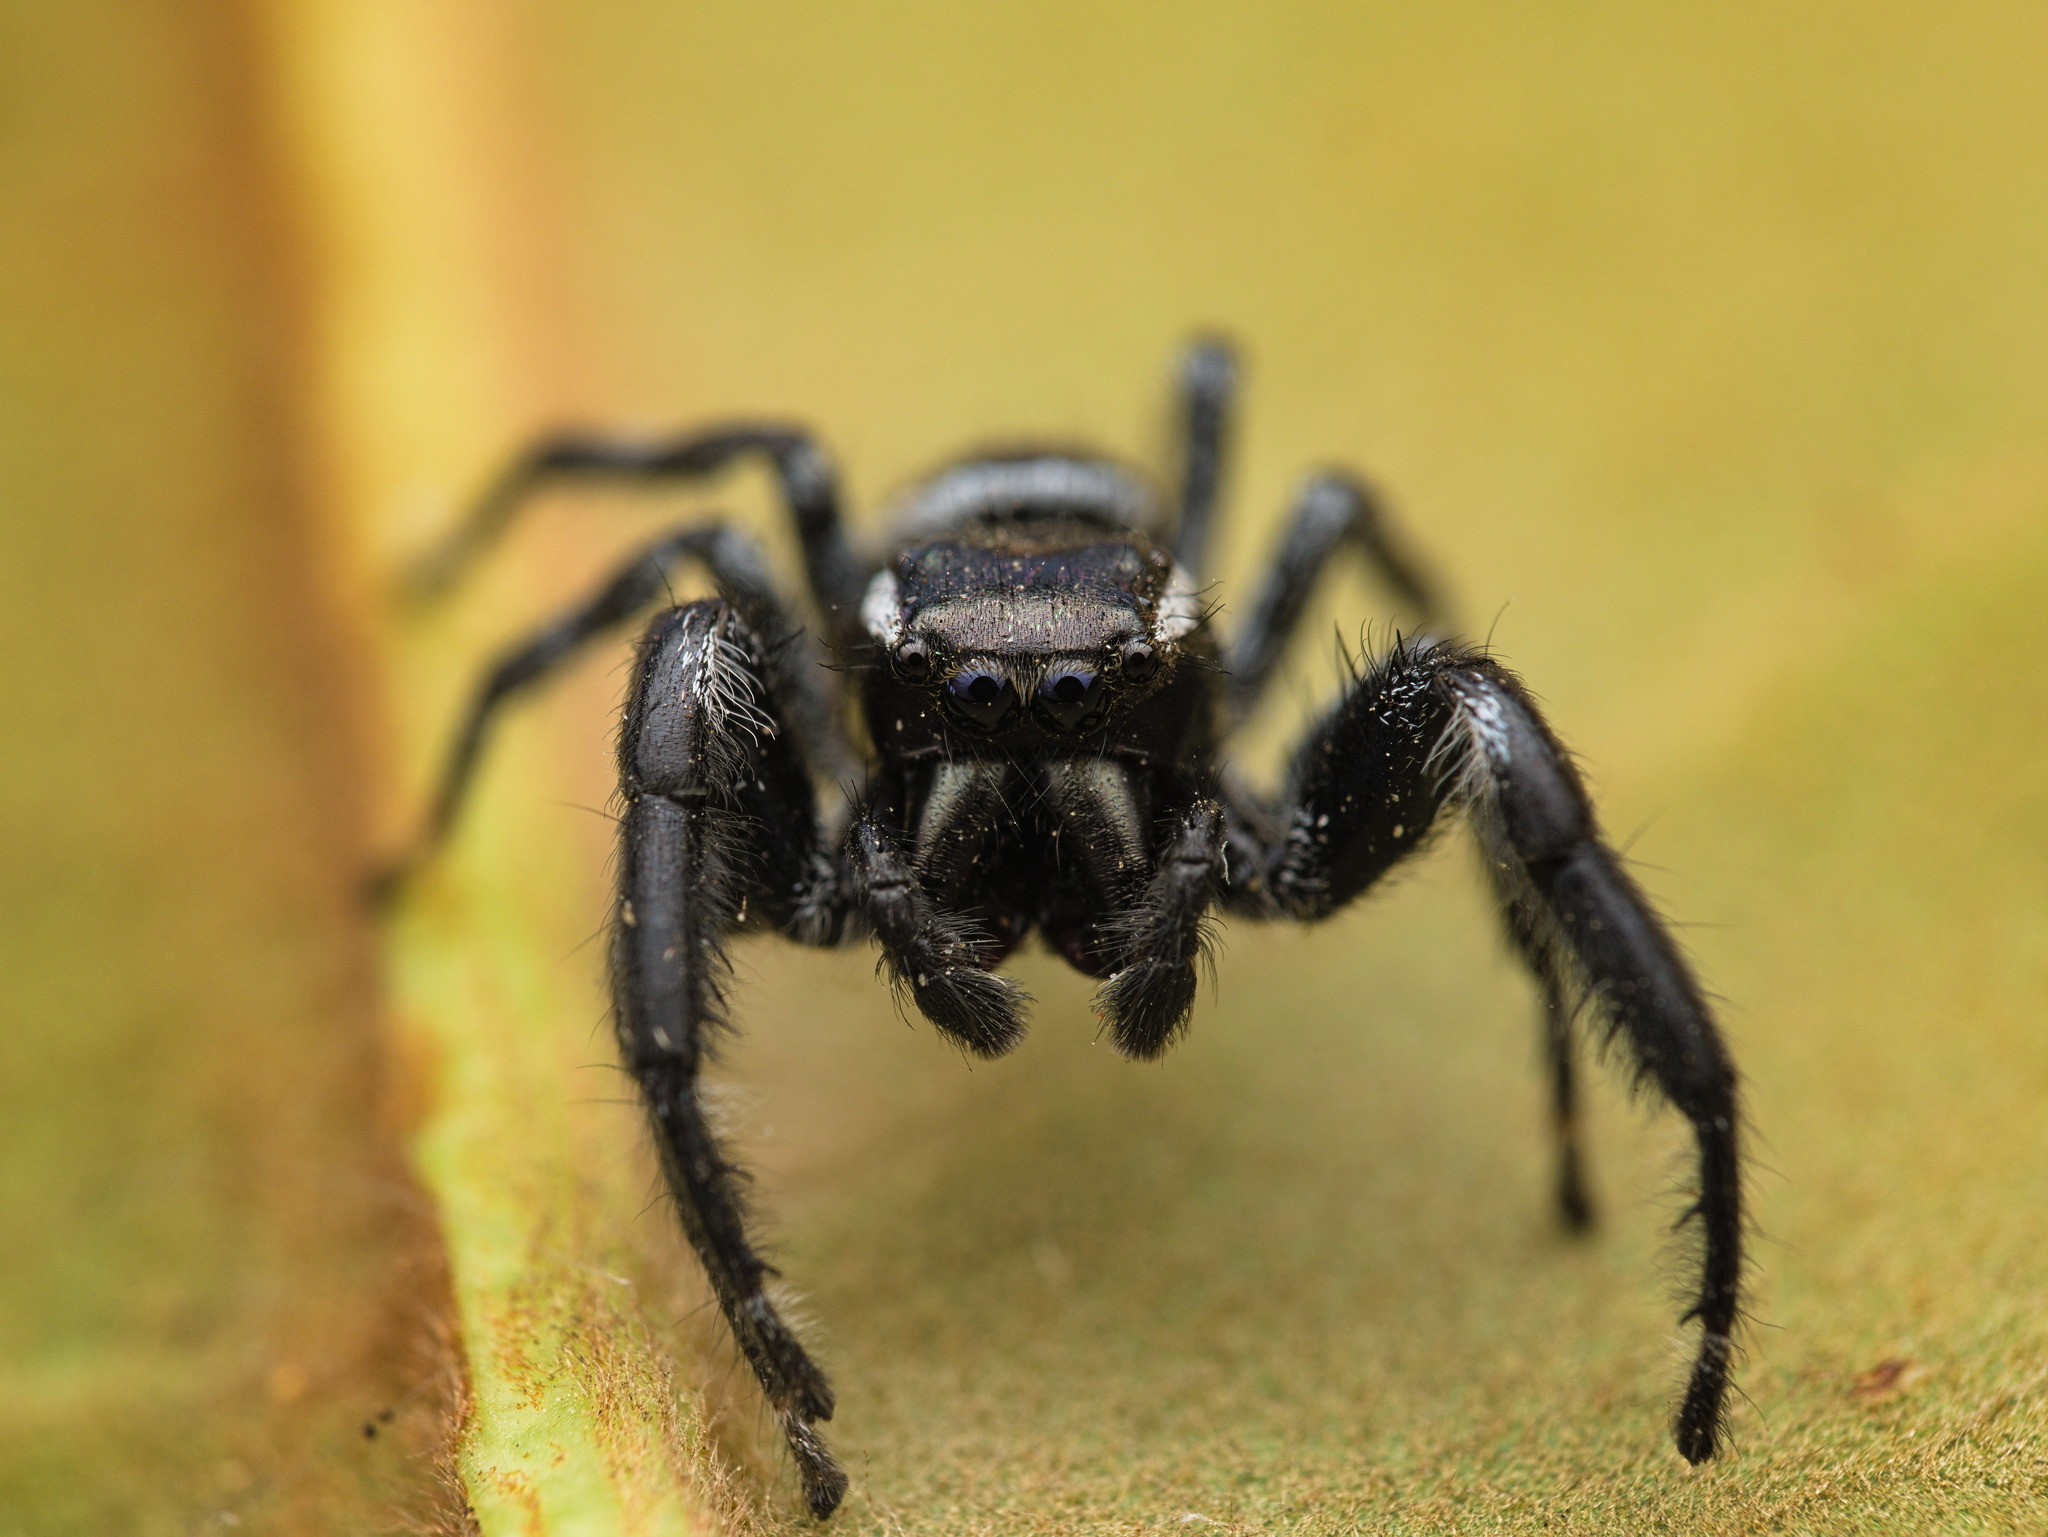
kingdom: Animalia
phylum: Arthropoda
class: Arachnida
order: Araneae
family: Salticidae
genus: Paraphidippus
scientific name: Paraphidippus aurantius
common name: Jumping spiders
